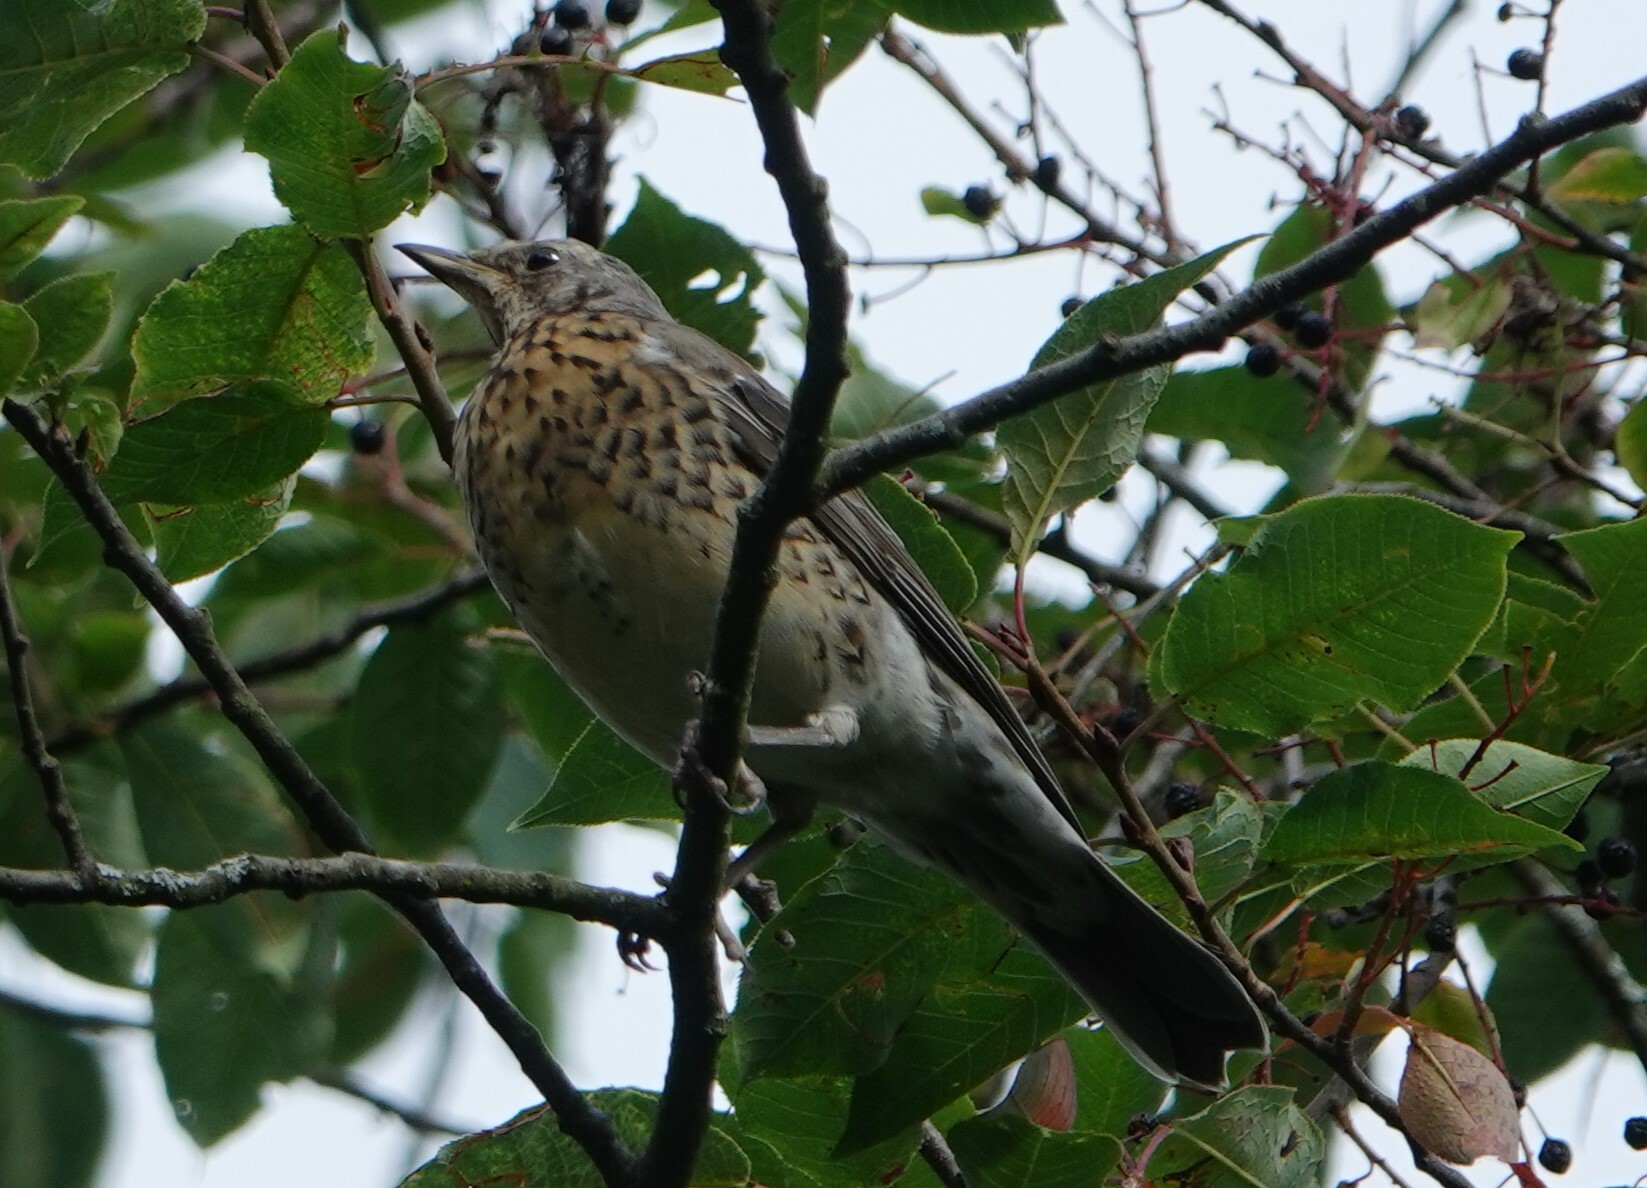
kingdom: Animalia
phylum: Chordata
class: Aves
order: Passeriformes
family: Turdidae
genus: Turdus
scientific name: Turdus pilaris
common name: Fieldfare
